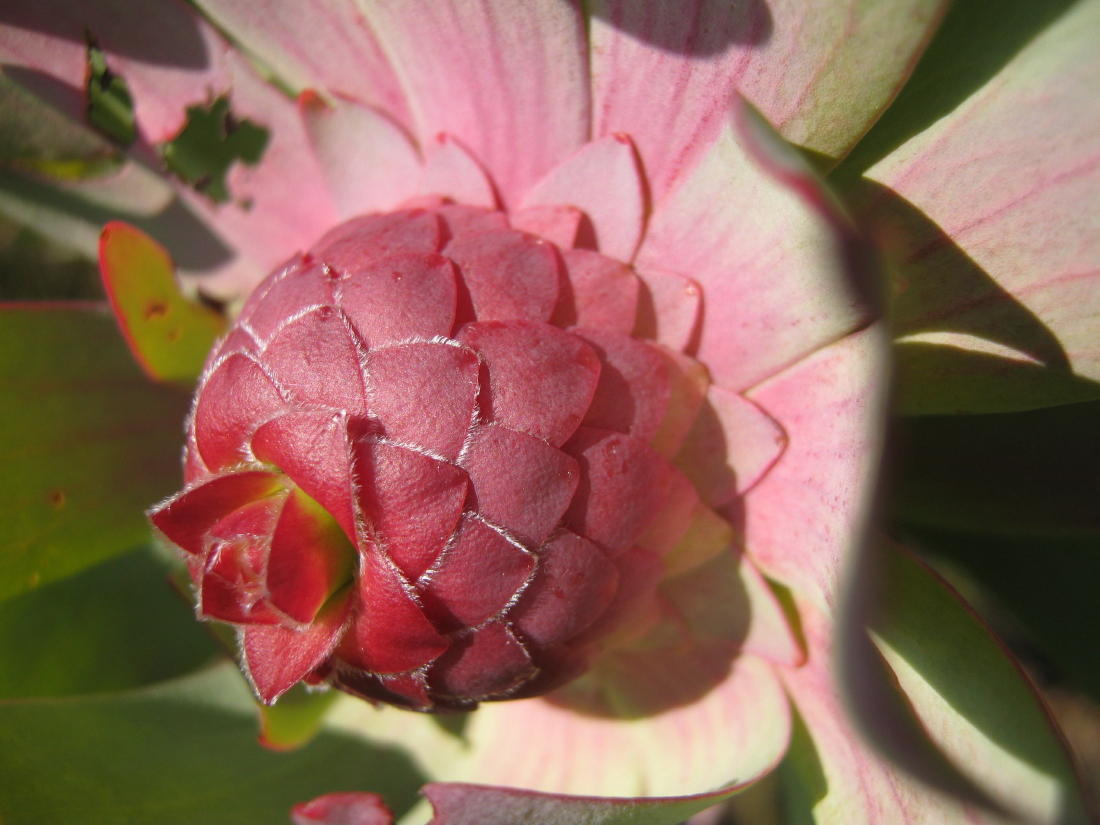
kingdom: Plantae
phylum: Tracheophyta
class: Magnoliopsida
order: Proteales
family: Proteaceae
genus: Leucadendron
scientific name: Leucadendron pubibracteolatum
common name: Purple-leaf conebush
